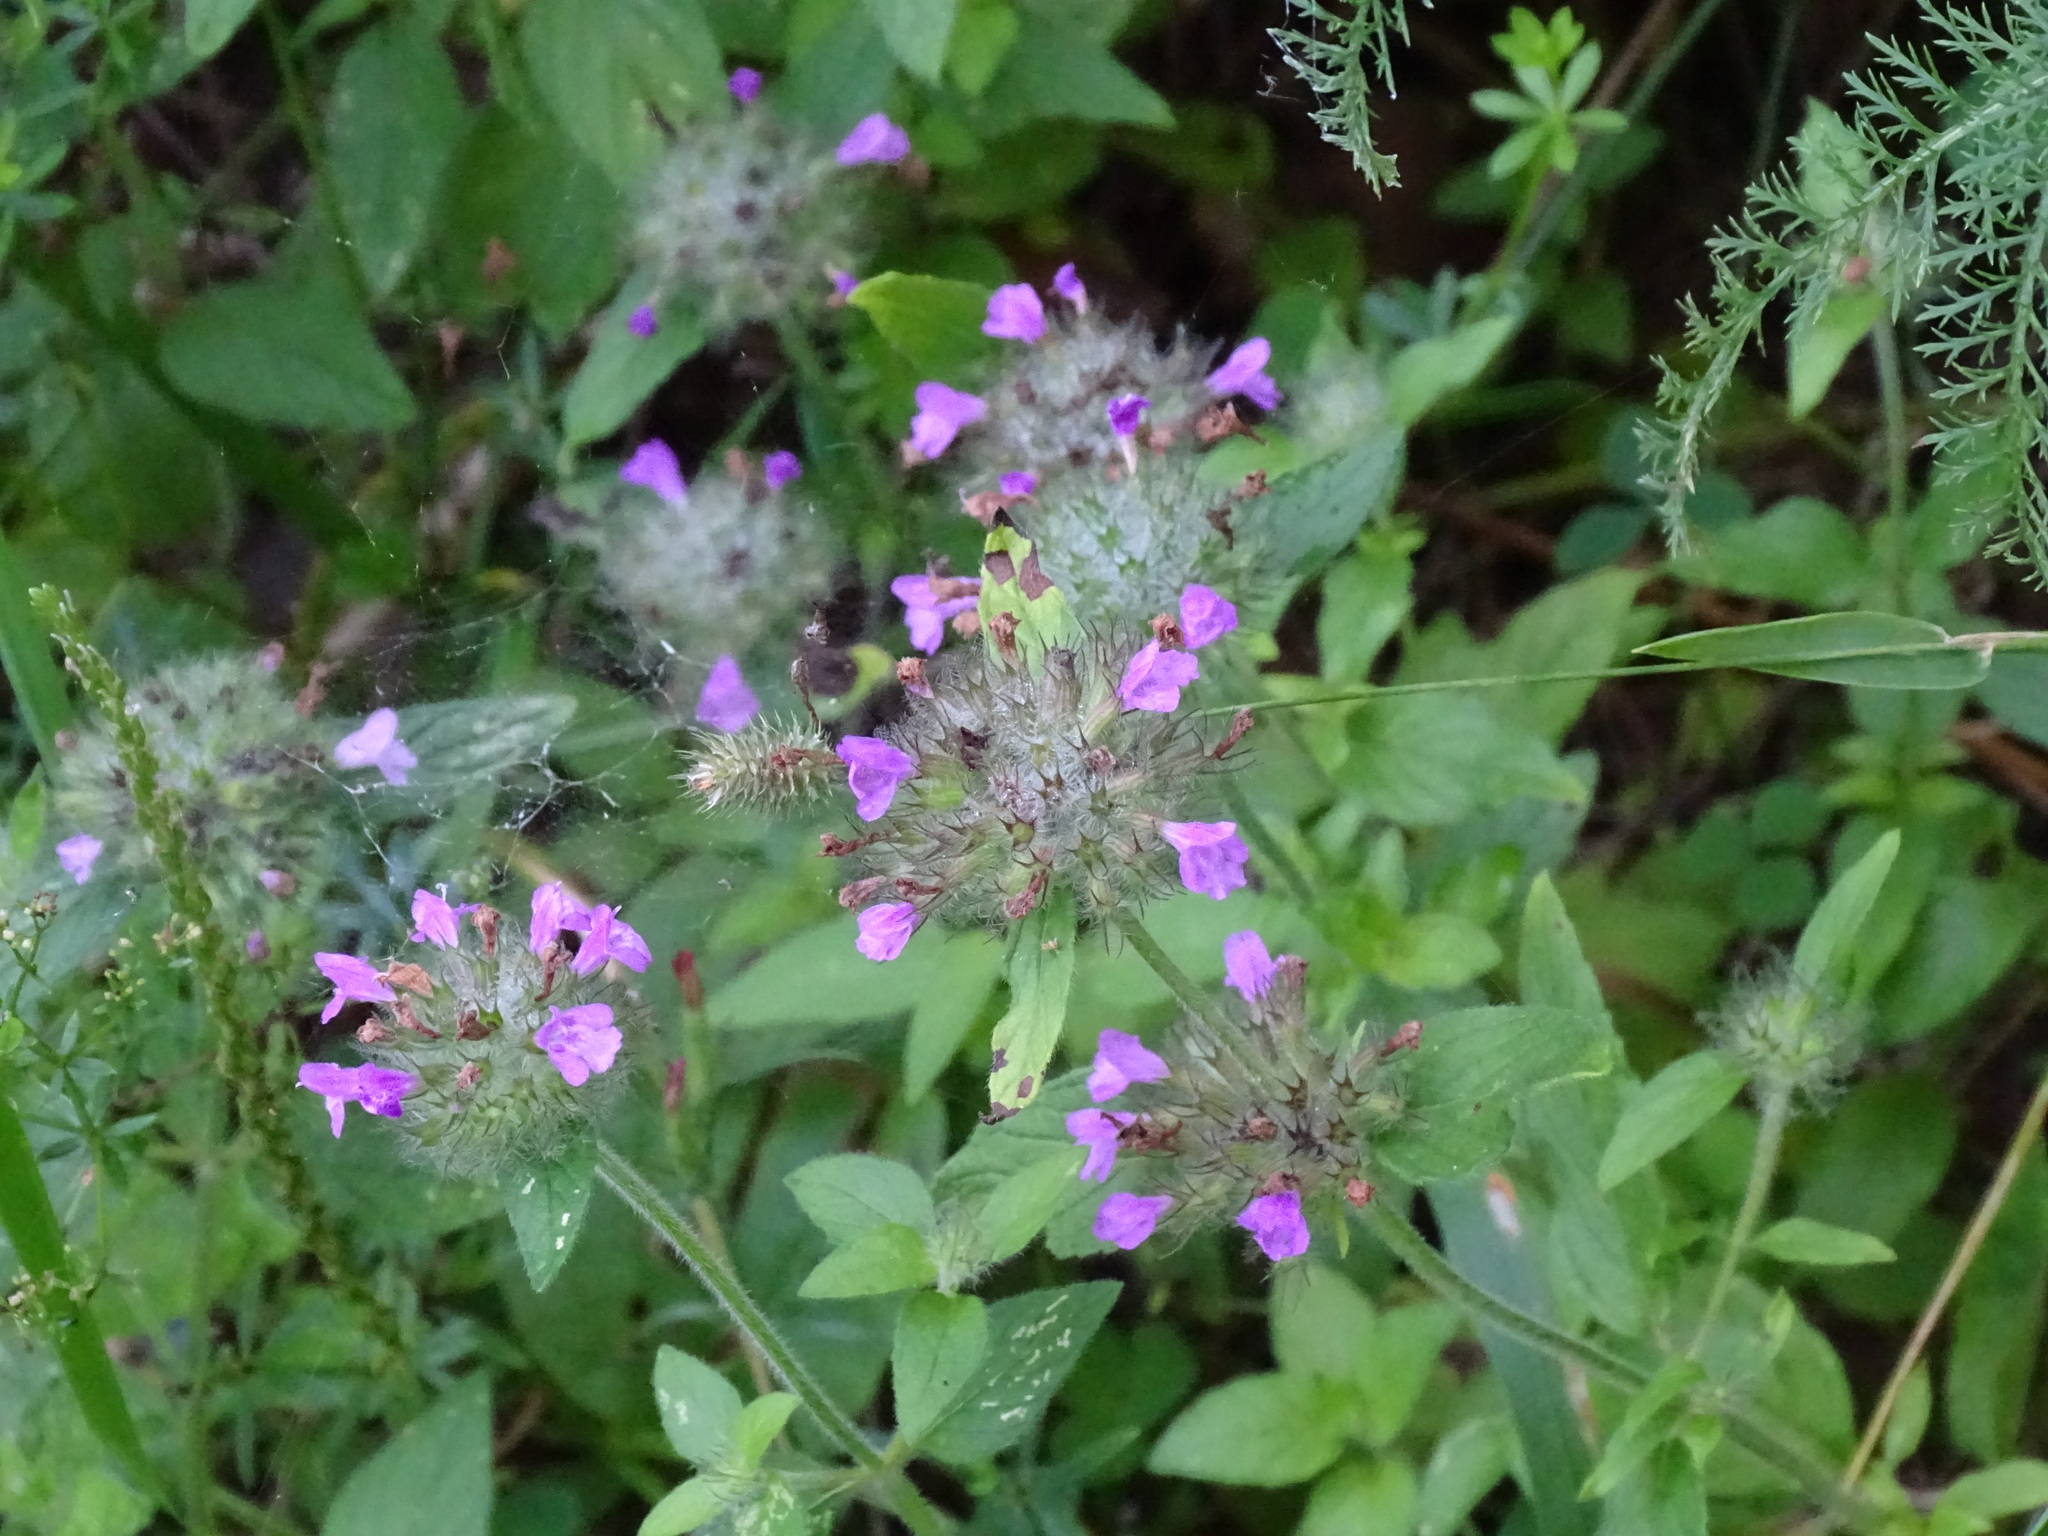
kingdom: Plantae
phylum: Tracheophyta
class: Magnoliopsida
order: Lamiales
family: Lamiaceae
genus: Clinopodium
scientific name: Clinopodium vulgare
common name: Wild basil
